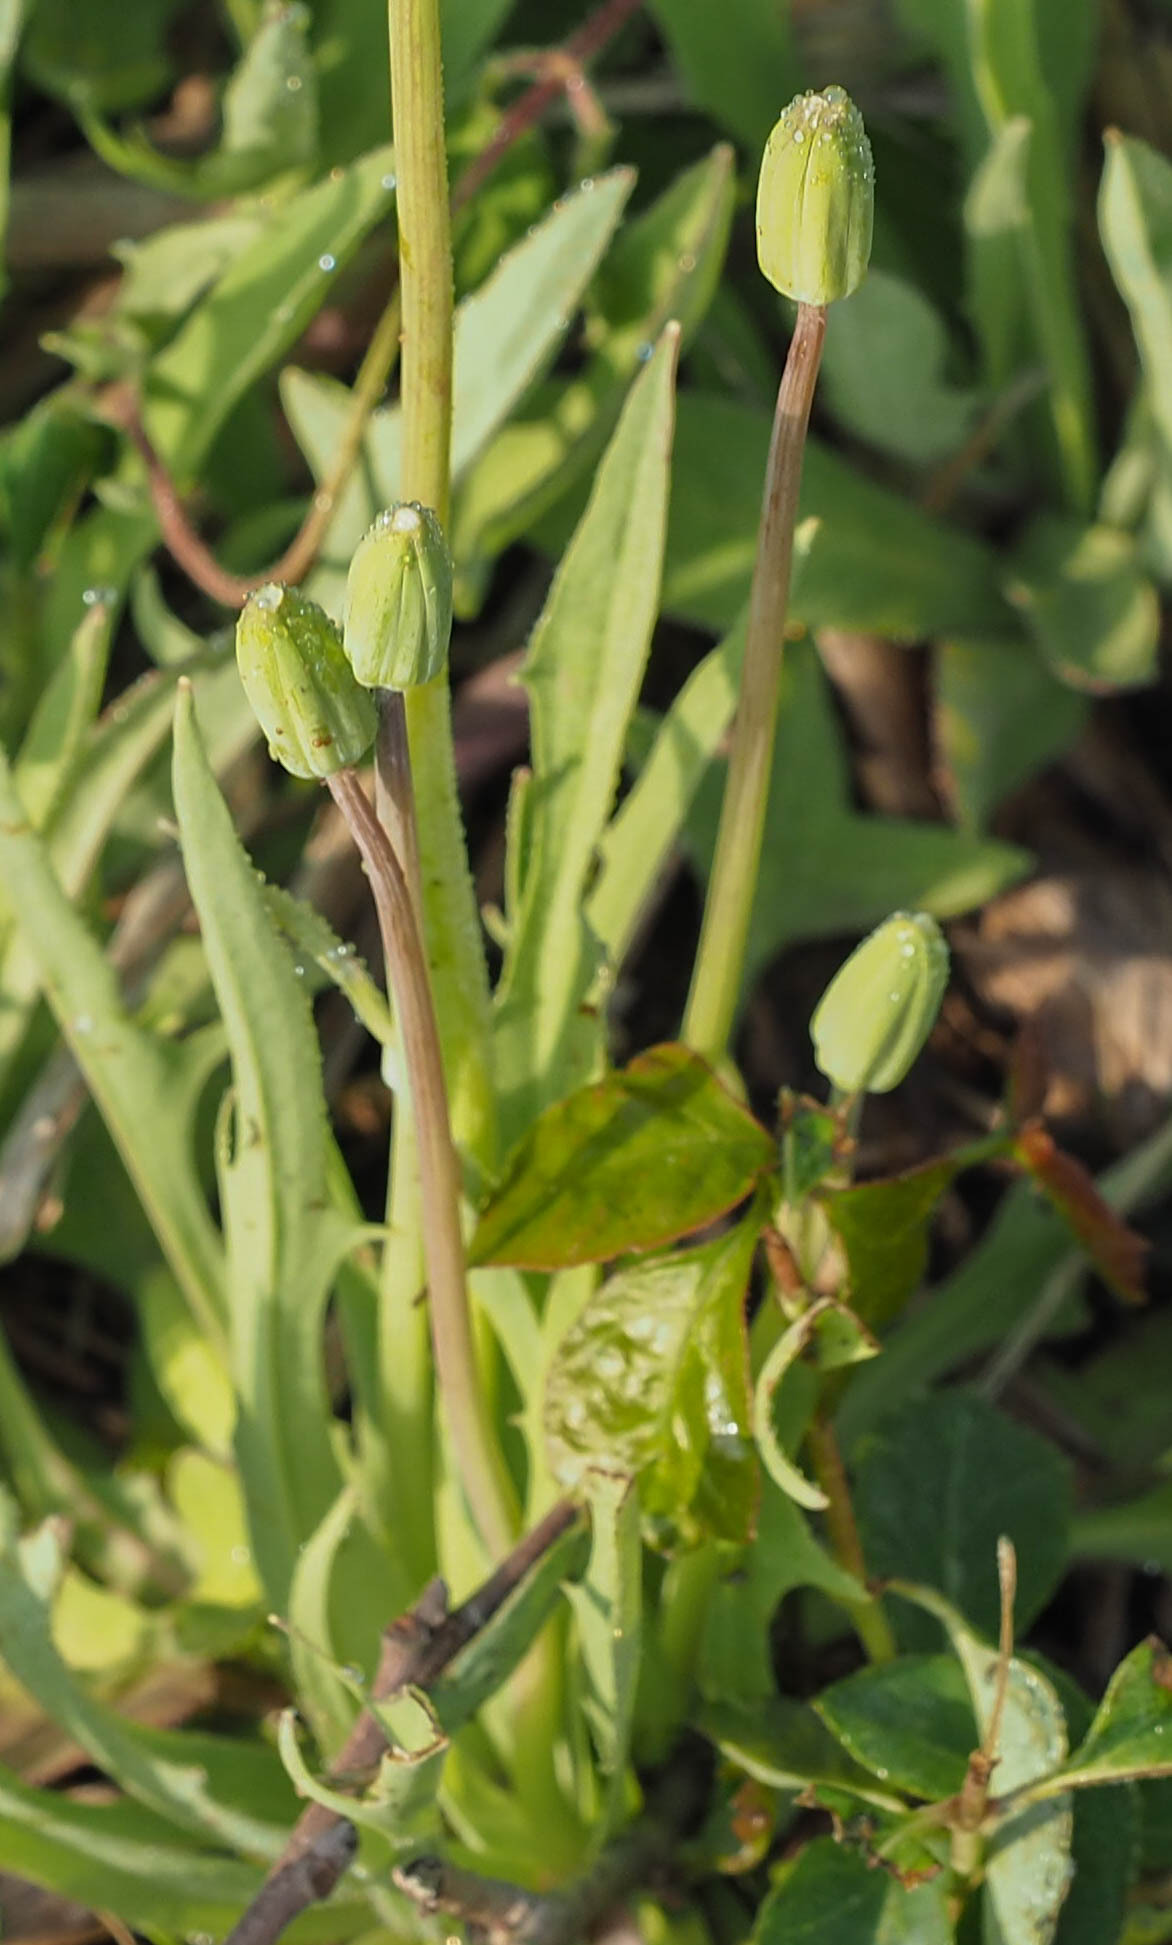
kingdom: Plantae
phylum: Tracheophyta
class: Magnoliopsida
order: Asterales
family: Asteraceae
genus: Krigia
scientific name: Krigia dandelion
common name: Colonial dwarf-dandelion
